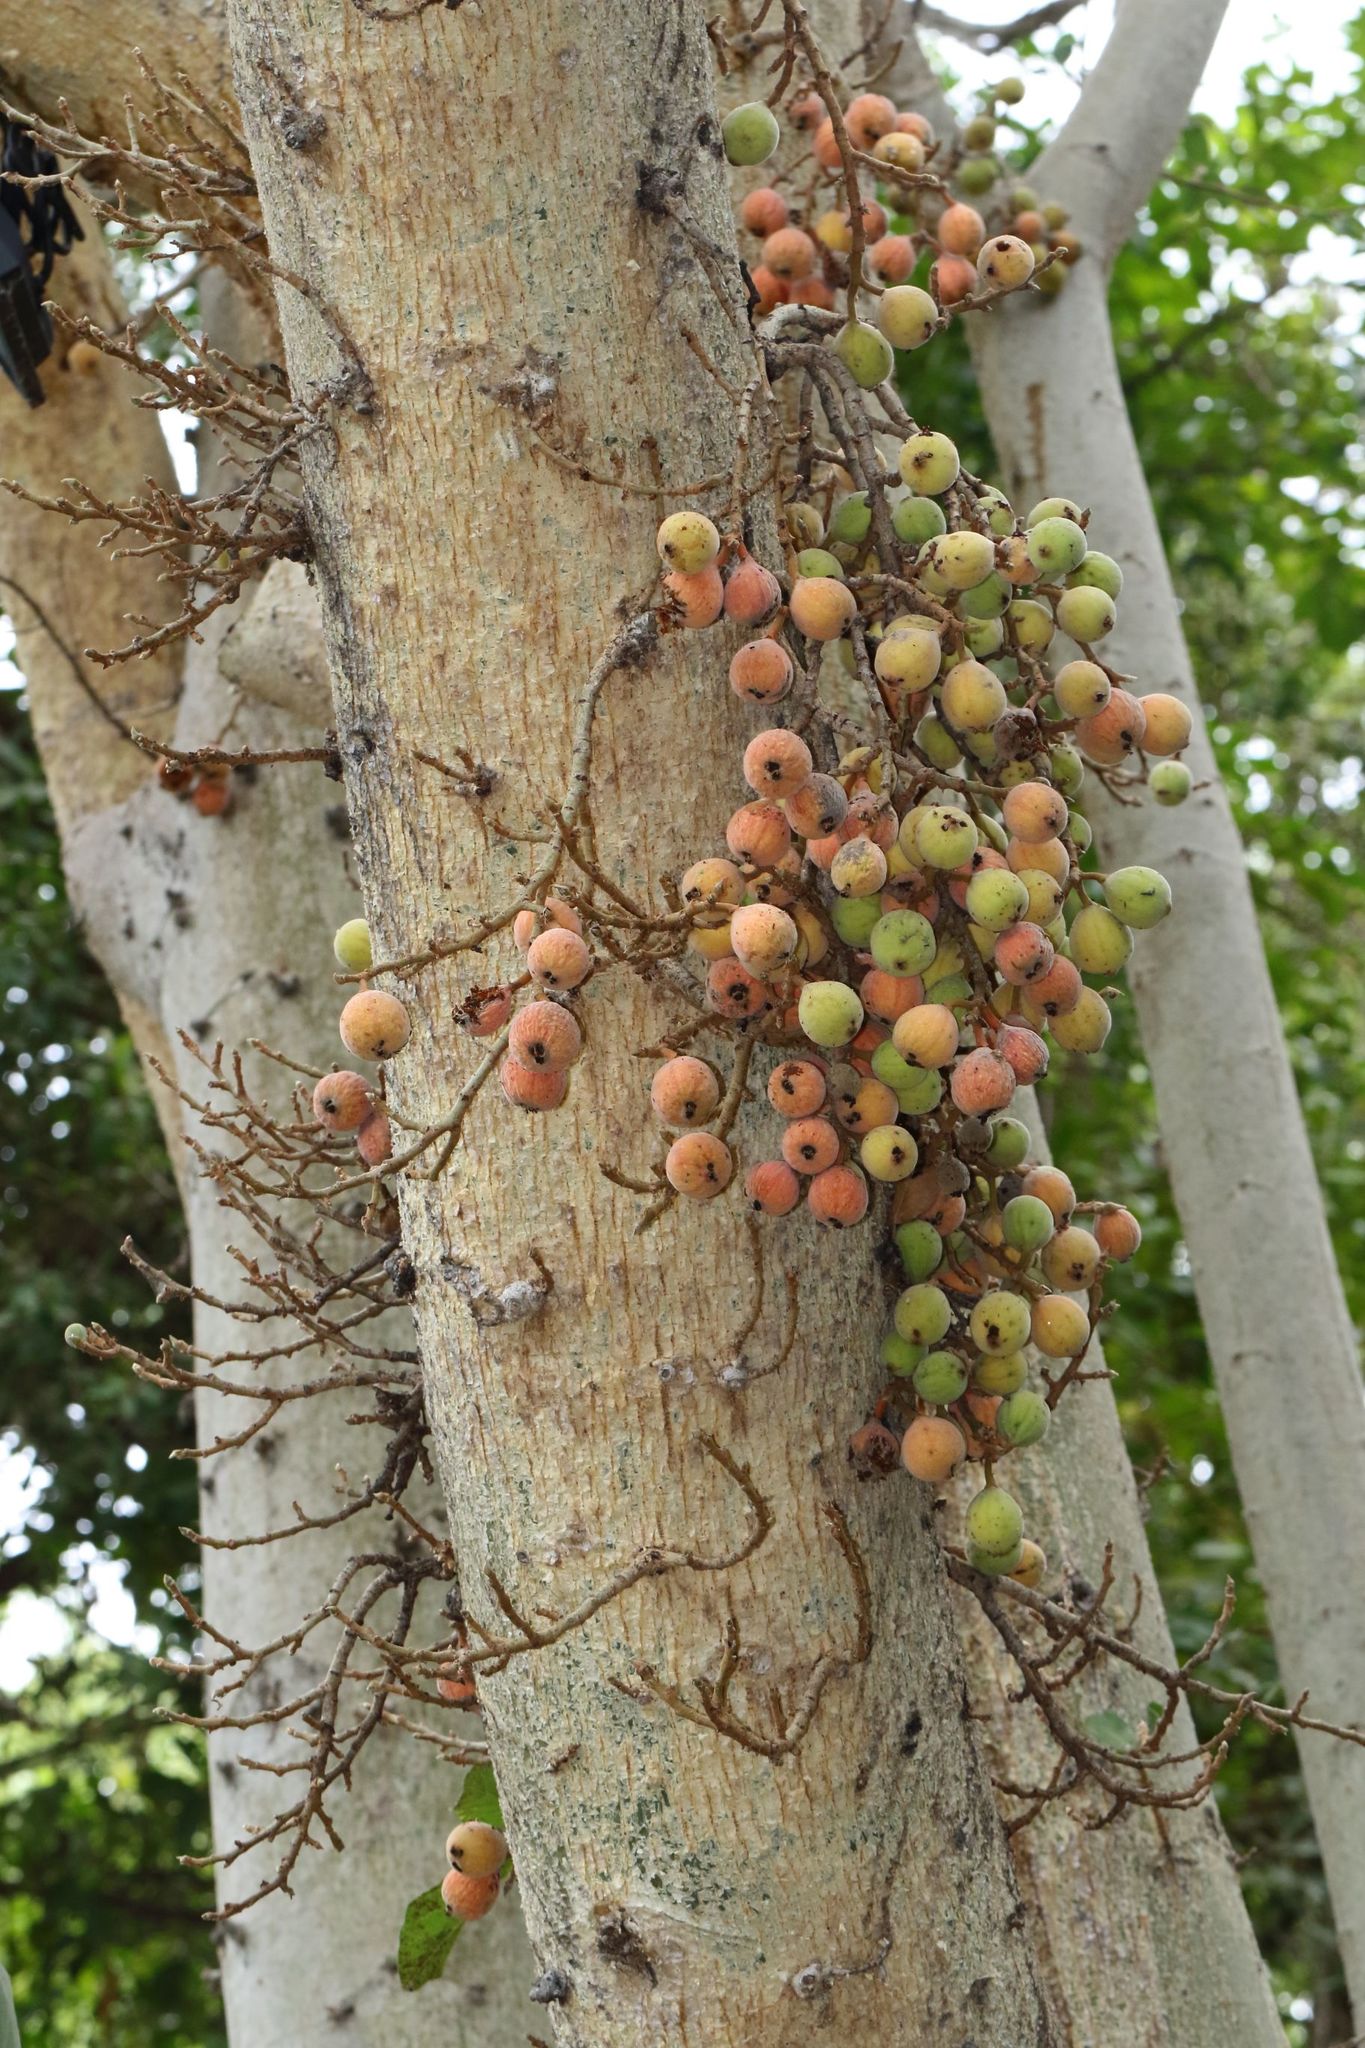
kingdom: Plantae
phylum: Tracheophyta
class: Magnoliopsida
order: Rosales
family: Moraceae
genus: Ficus
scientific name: Ficus sycomorus
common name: Sycomore
